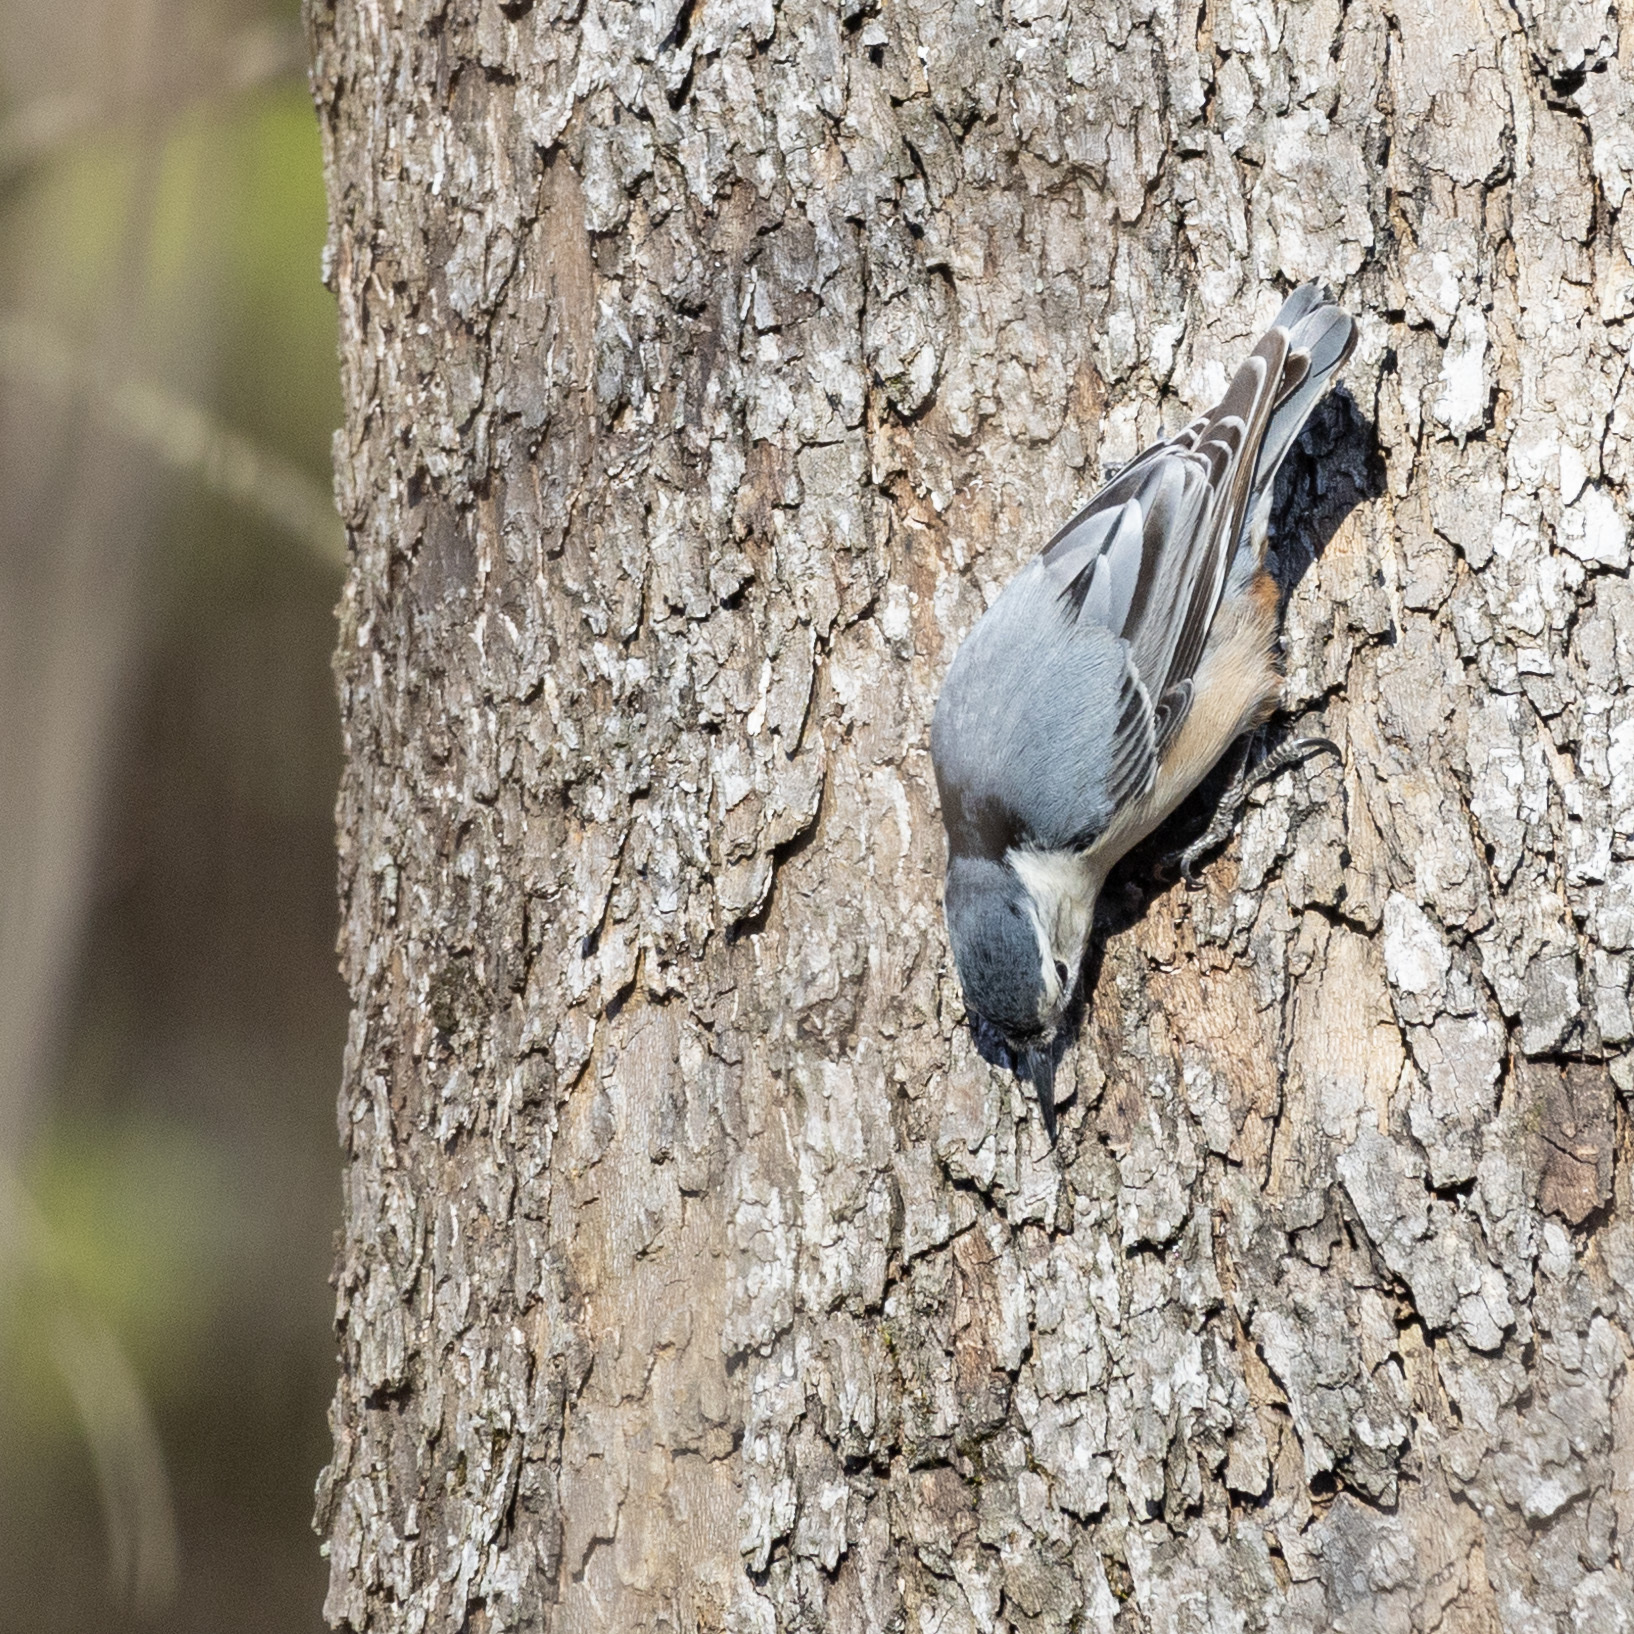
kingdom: Animalia
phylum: Chordata
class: Aves
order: Passeriformes
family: Sittidae
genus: Sitta
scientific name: Sitta carolinensis
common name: White-breasted nuthatch
